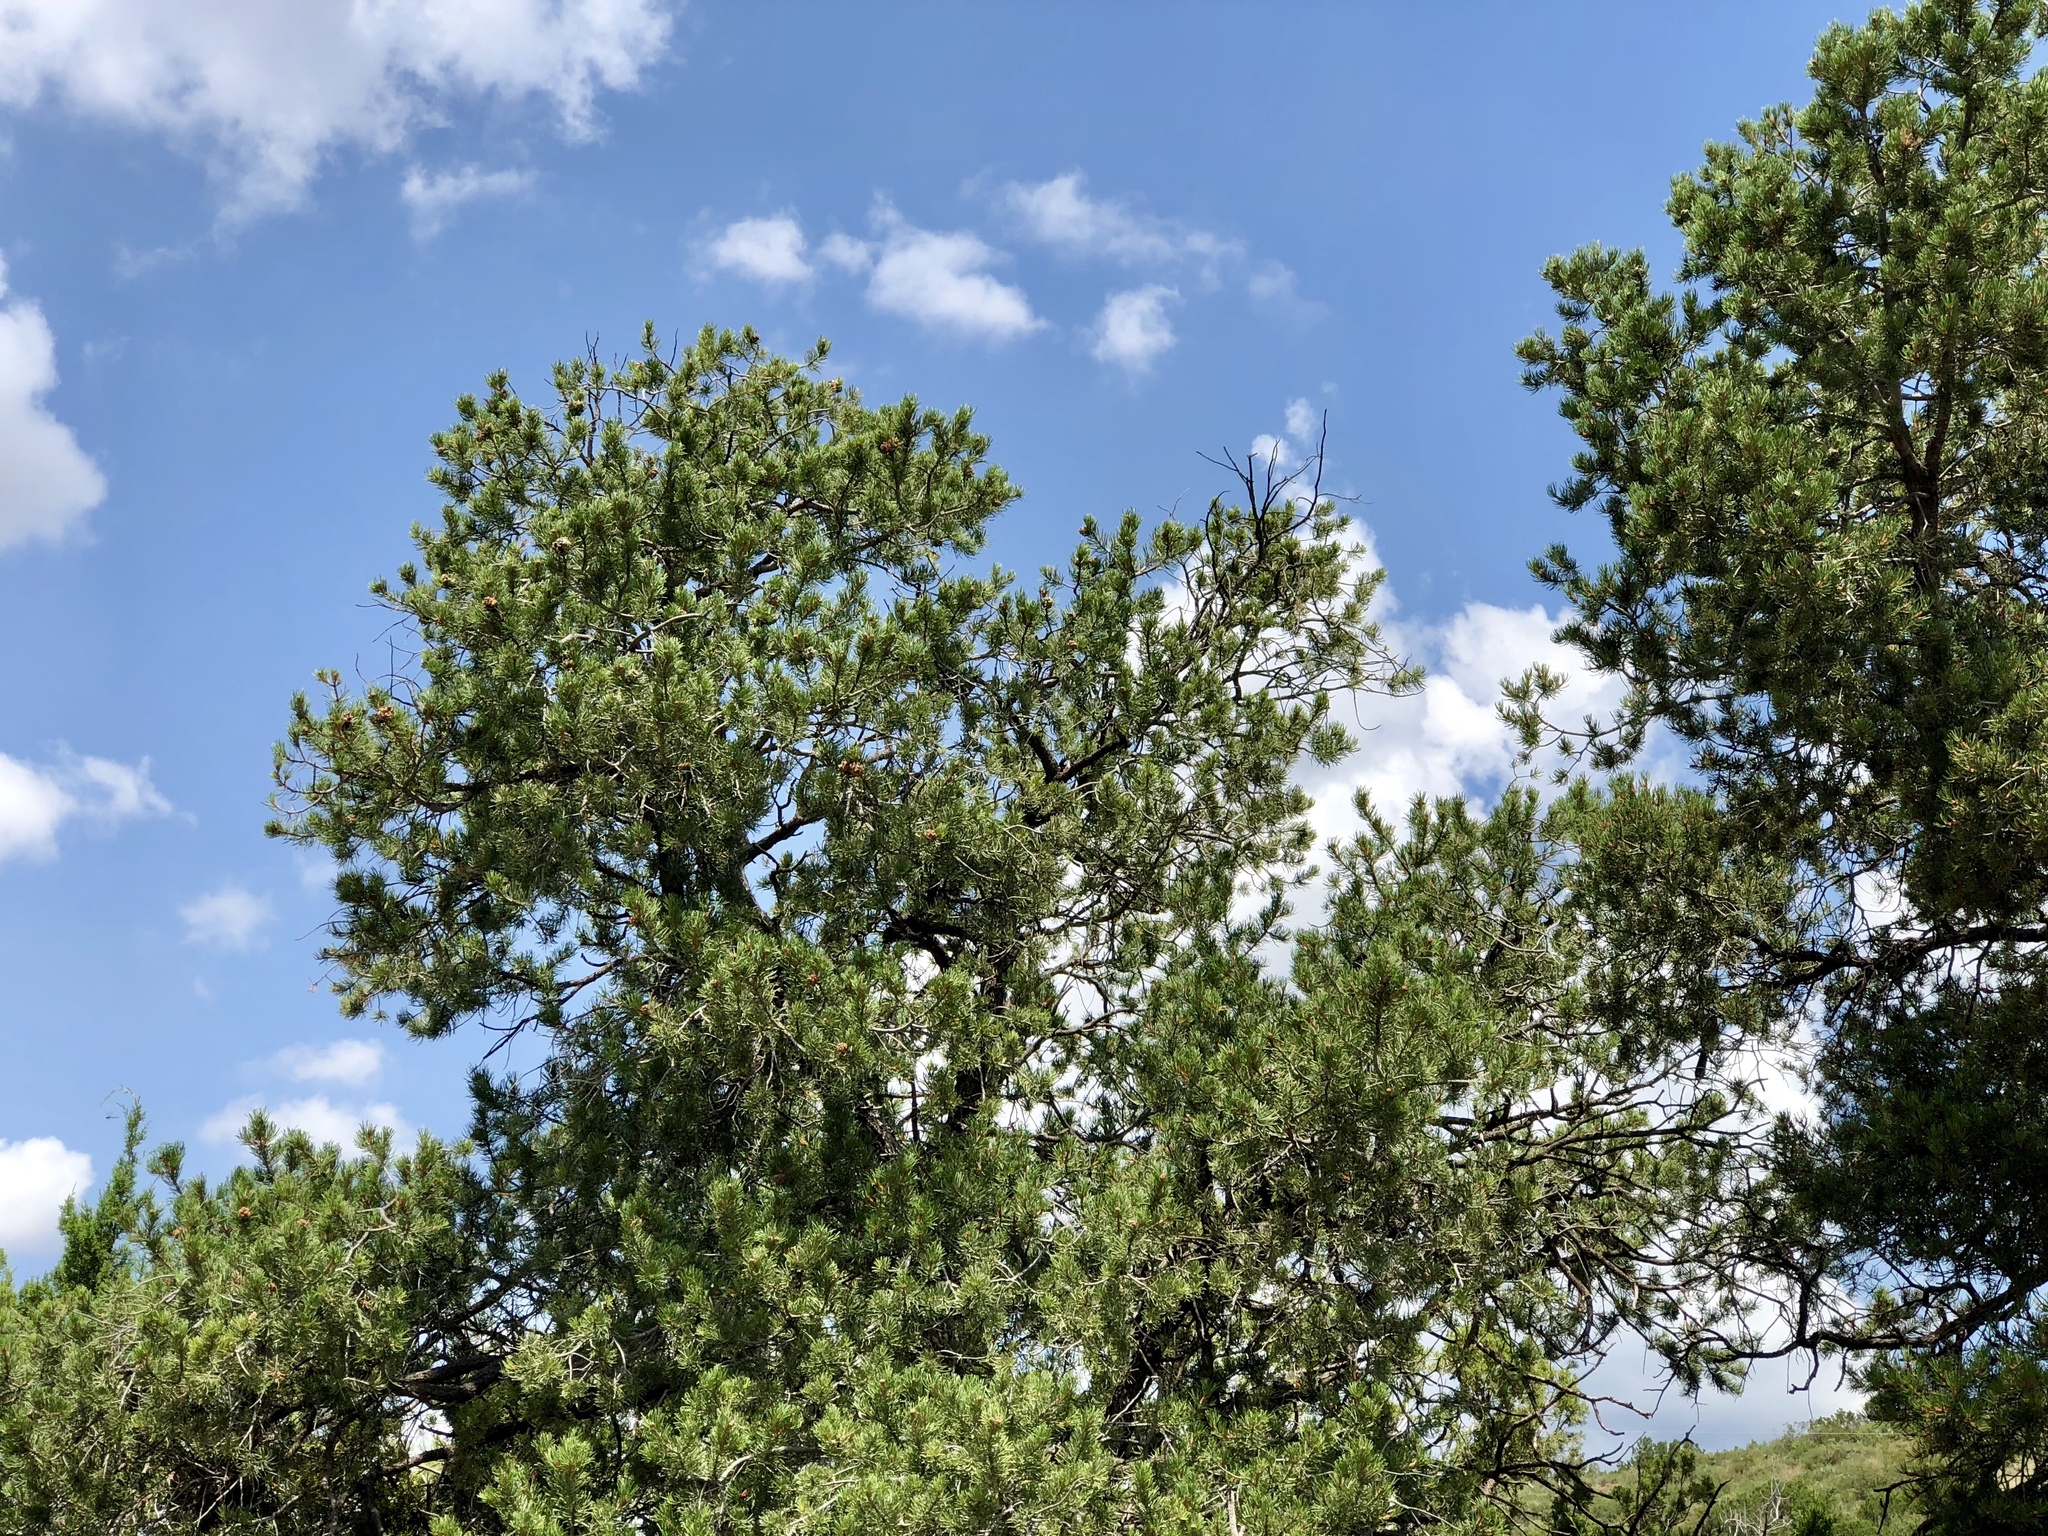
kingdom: Plantae
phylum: Tracheophyta
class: Pinopsida
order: Pinales
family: Pinaceae
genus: Pinus
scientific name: Pinus edulis
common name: Colorado pinyon
